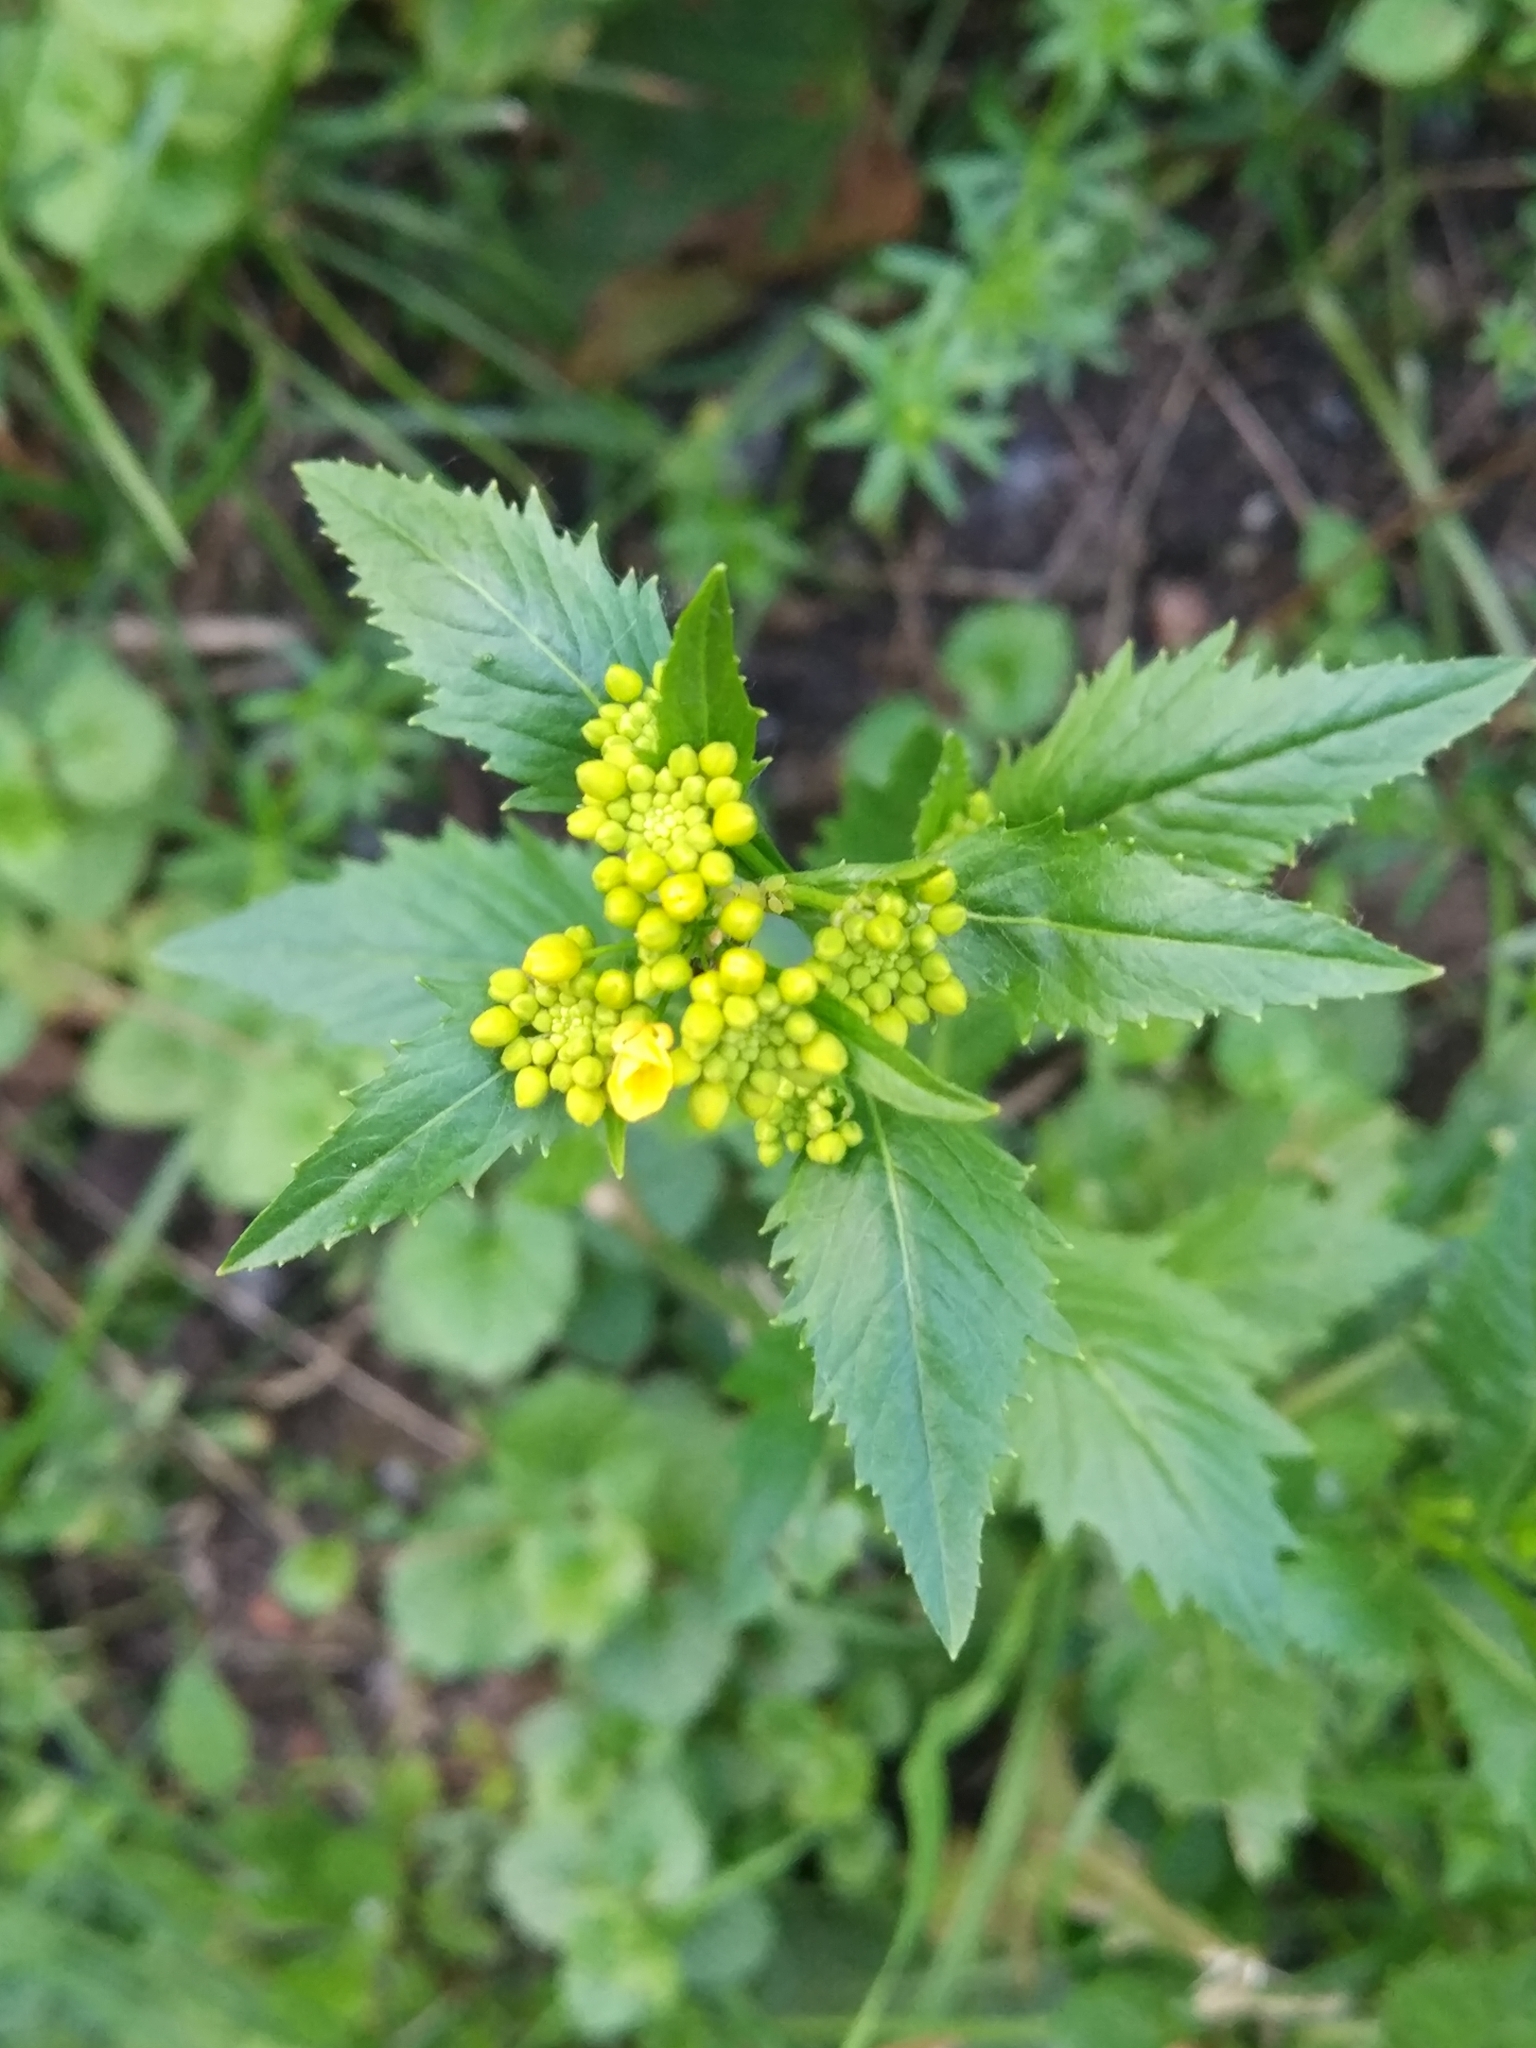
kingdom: Plantae
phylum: Tracheophyta
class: Magnoliopsida
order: Brassicales
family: Brassicaceae
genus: Rorippa
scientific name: Rorippa austriaca
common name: Austrian yellow-cress
